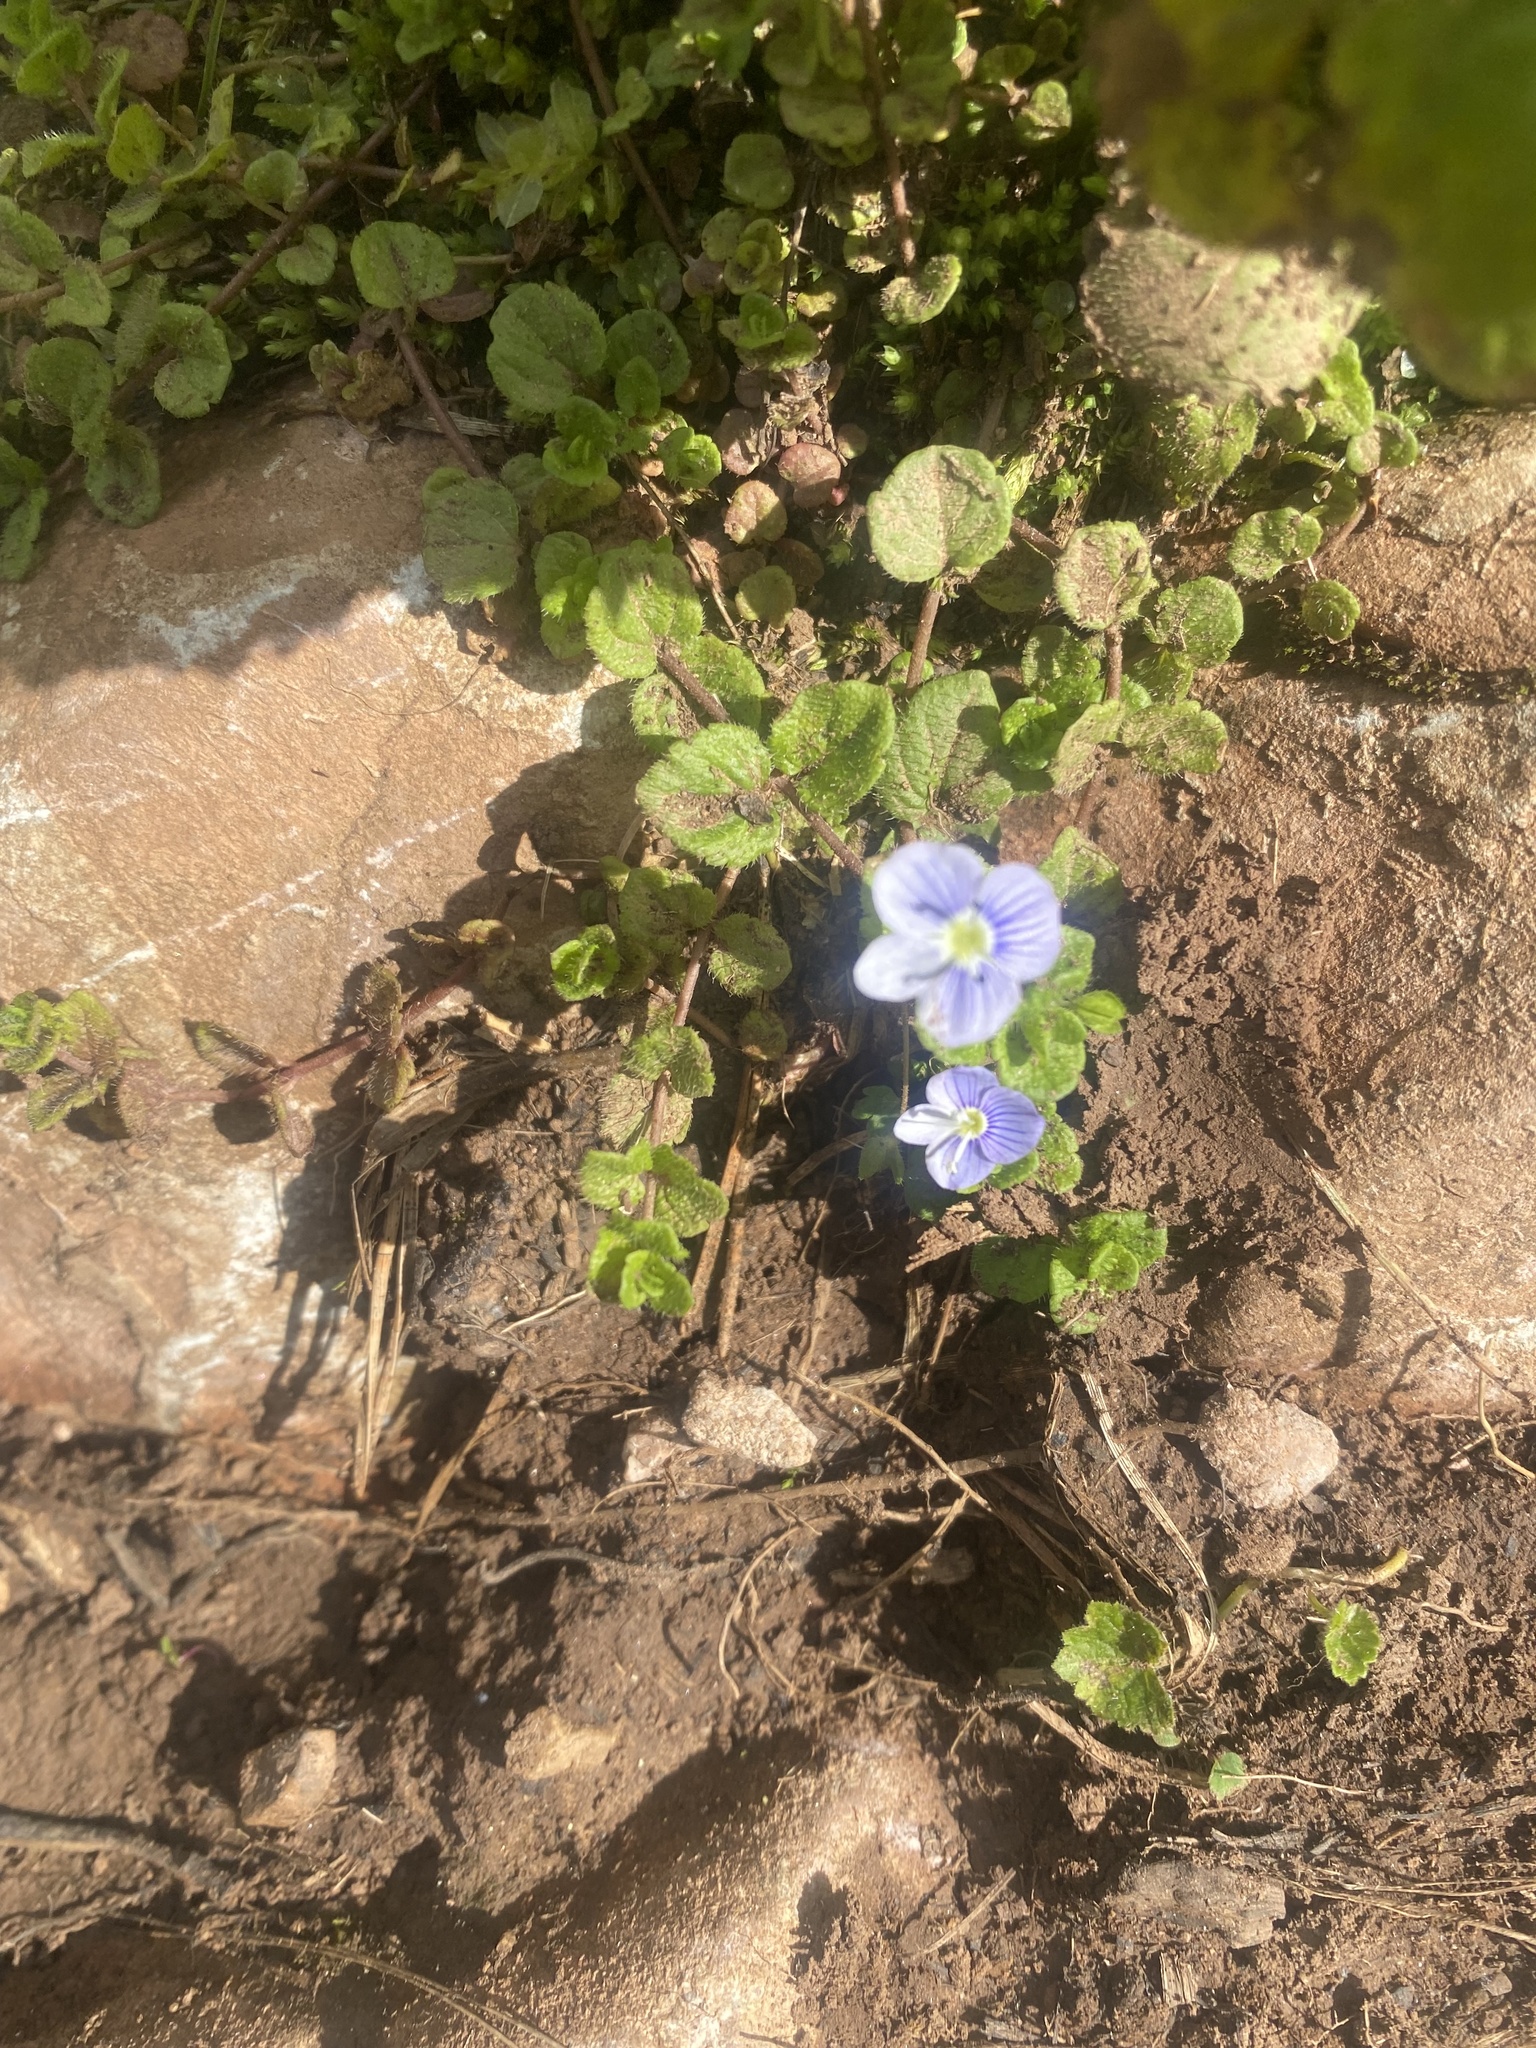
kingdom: Plantae
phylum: Tracheophyta
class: Magnoliopsida
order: Lamiales
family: Plantaginaceae
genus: Veronica
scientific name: Veronica filiformis
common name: Slender speedwell
